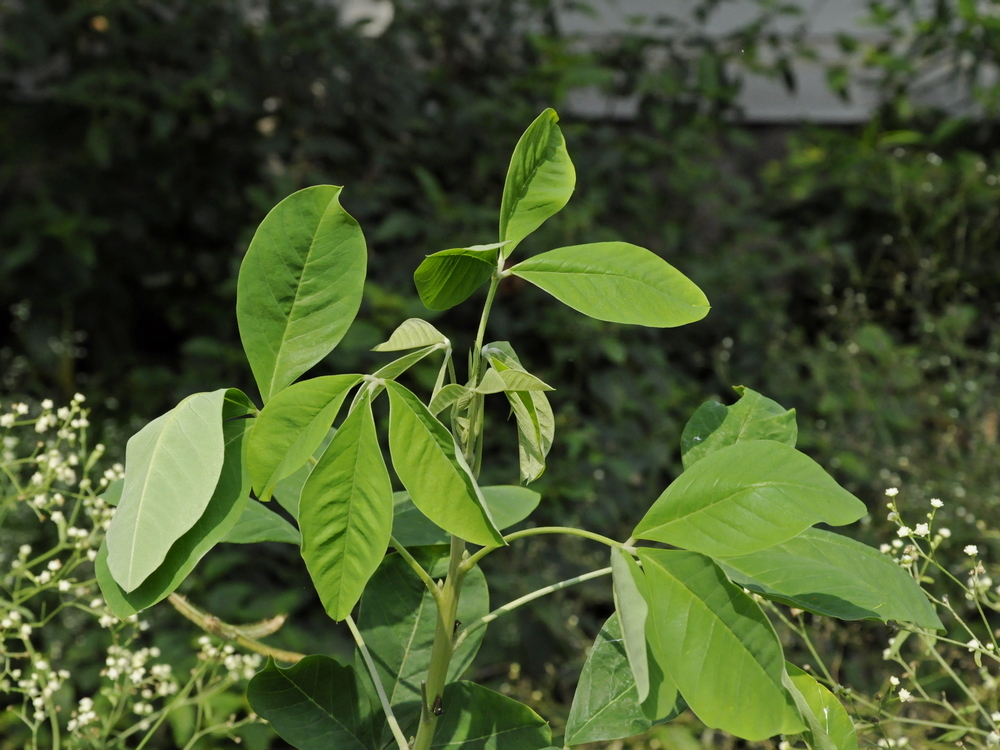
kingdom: Plantae
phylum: Tracheophyta
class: Magnoliopsida
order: Fabales
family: Fabaceae
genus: Crotalaria
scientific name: Crotalaria pallida
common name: Smooth rattlebox
